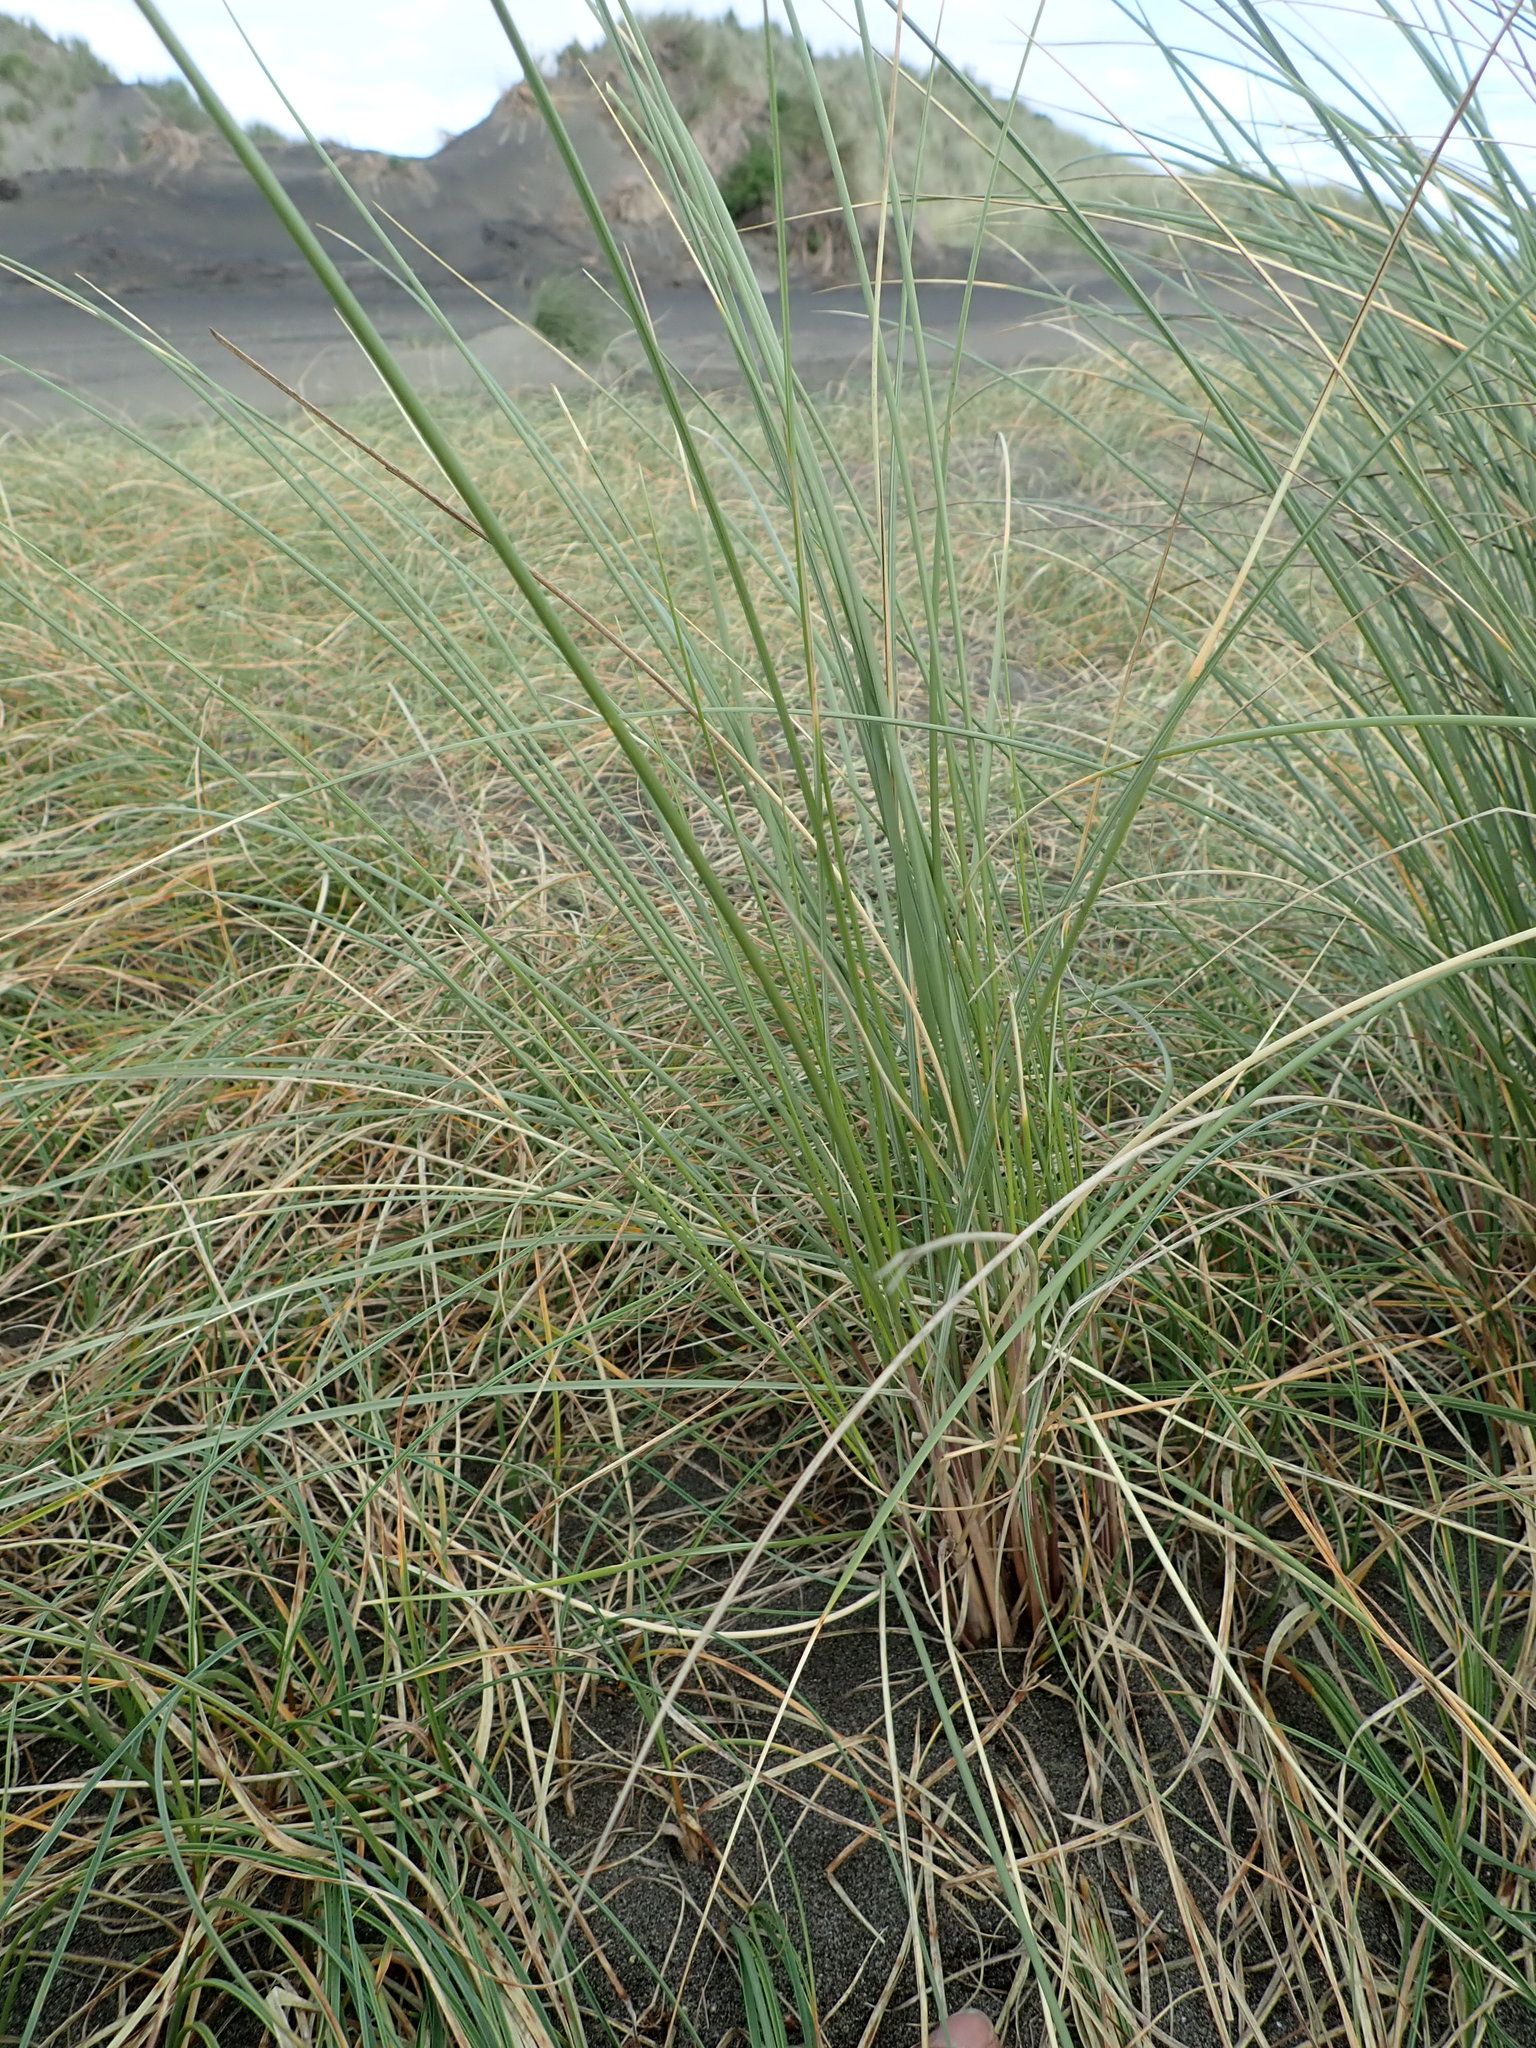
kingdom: Plantae
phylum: Tracheophyta
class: Liliopsida
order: Poales
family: Poaceae
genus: Calamagrostis
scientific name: Calamagrostis arenaria
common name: European beachgrass
